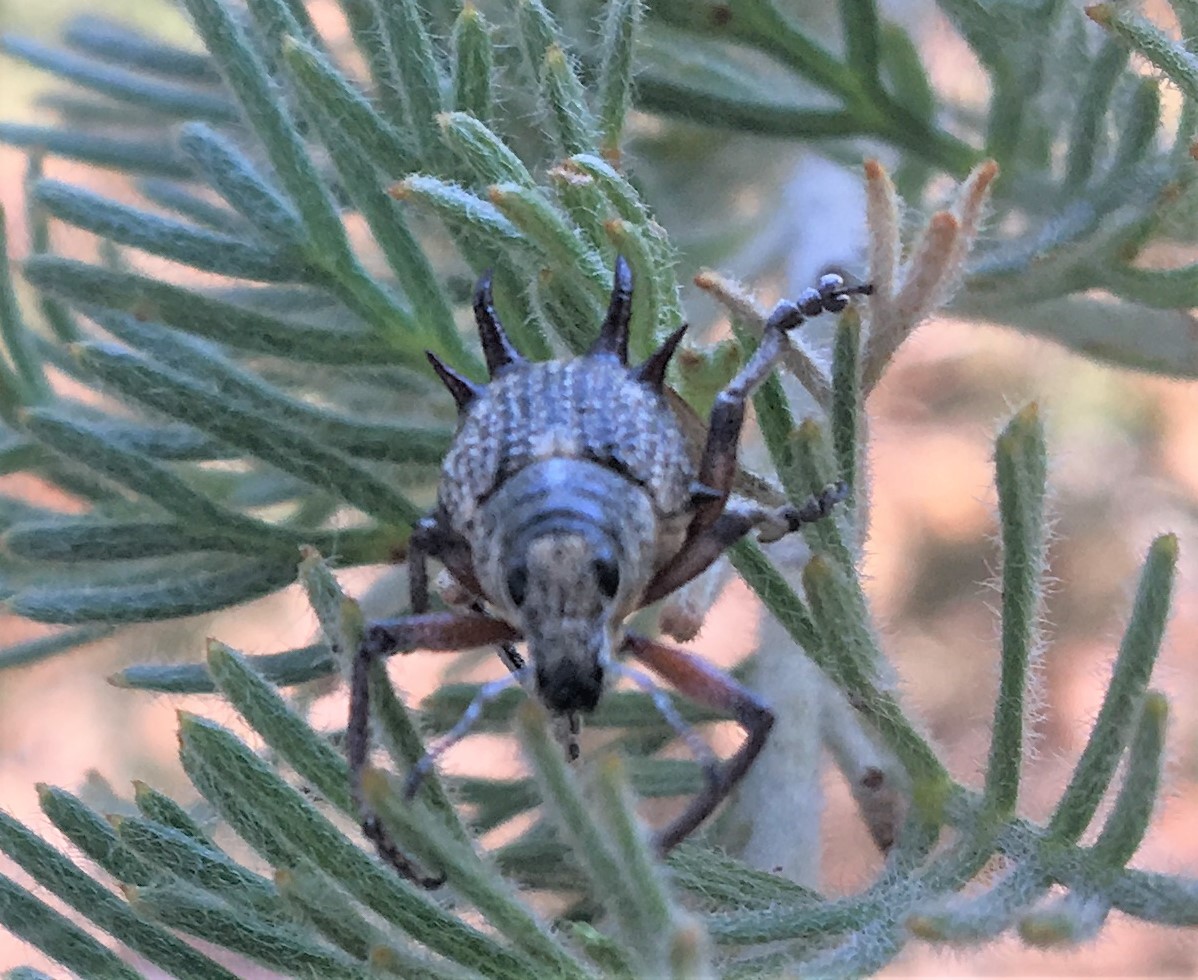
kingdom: Animalia
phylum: Arthropoda
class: Insecta
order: Coleoptera
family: Curculionidae
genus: Catasarcus
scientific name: Catasarcus spinipennis
